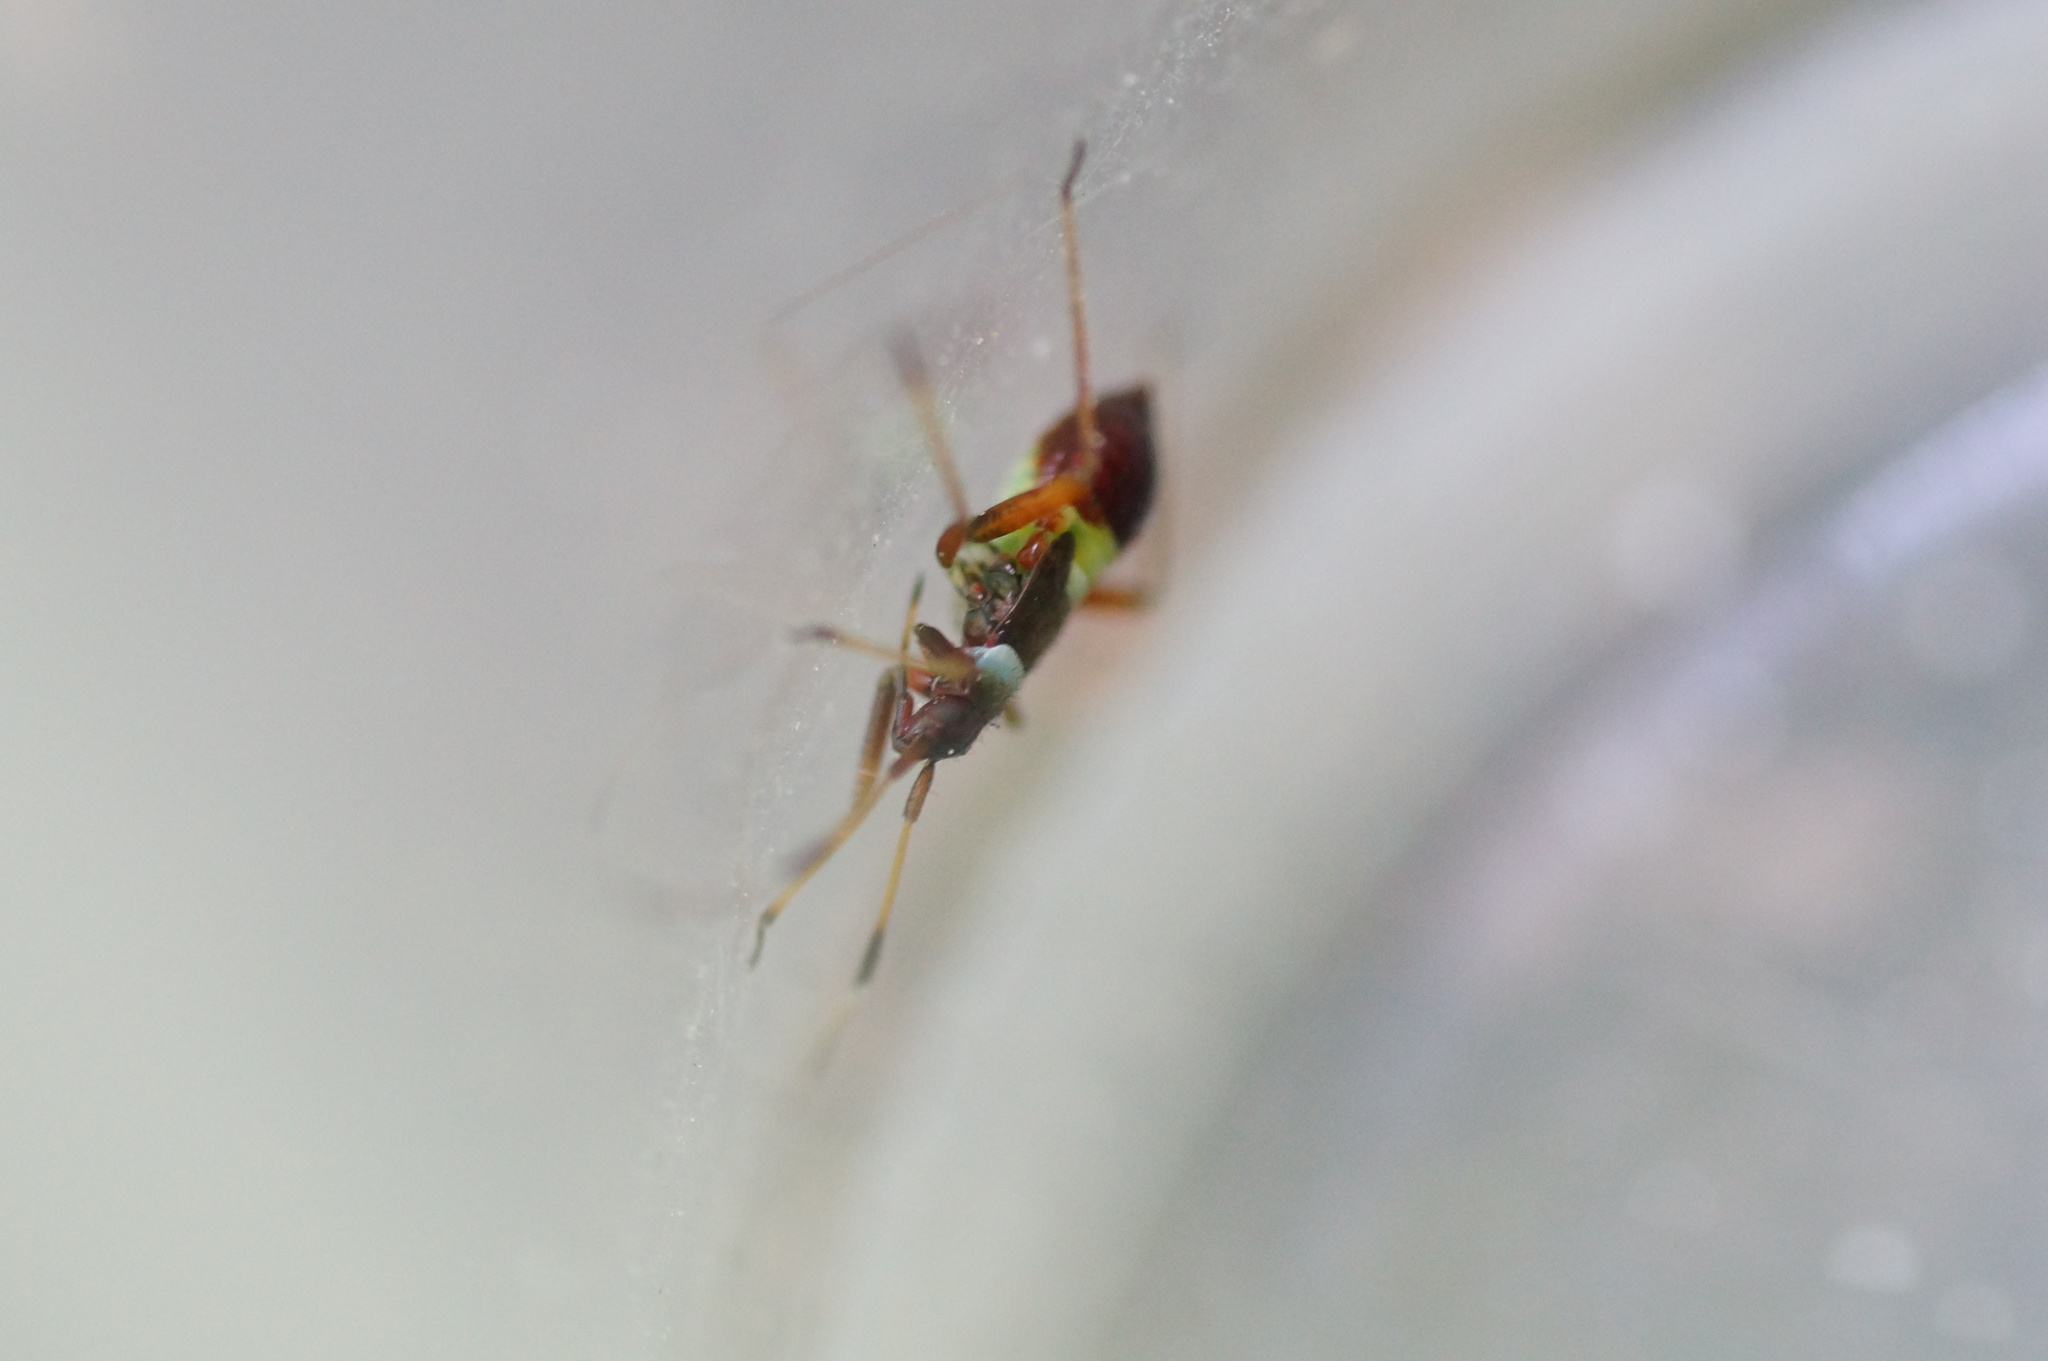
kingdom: Animalia
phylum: Arthropoda
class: Insecta
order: Hemiptera
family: Miridae
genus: Closterotomus
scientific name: Closterotomus biclavatus
